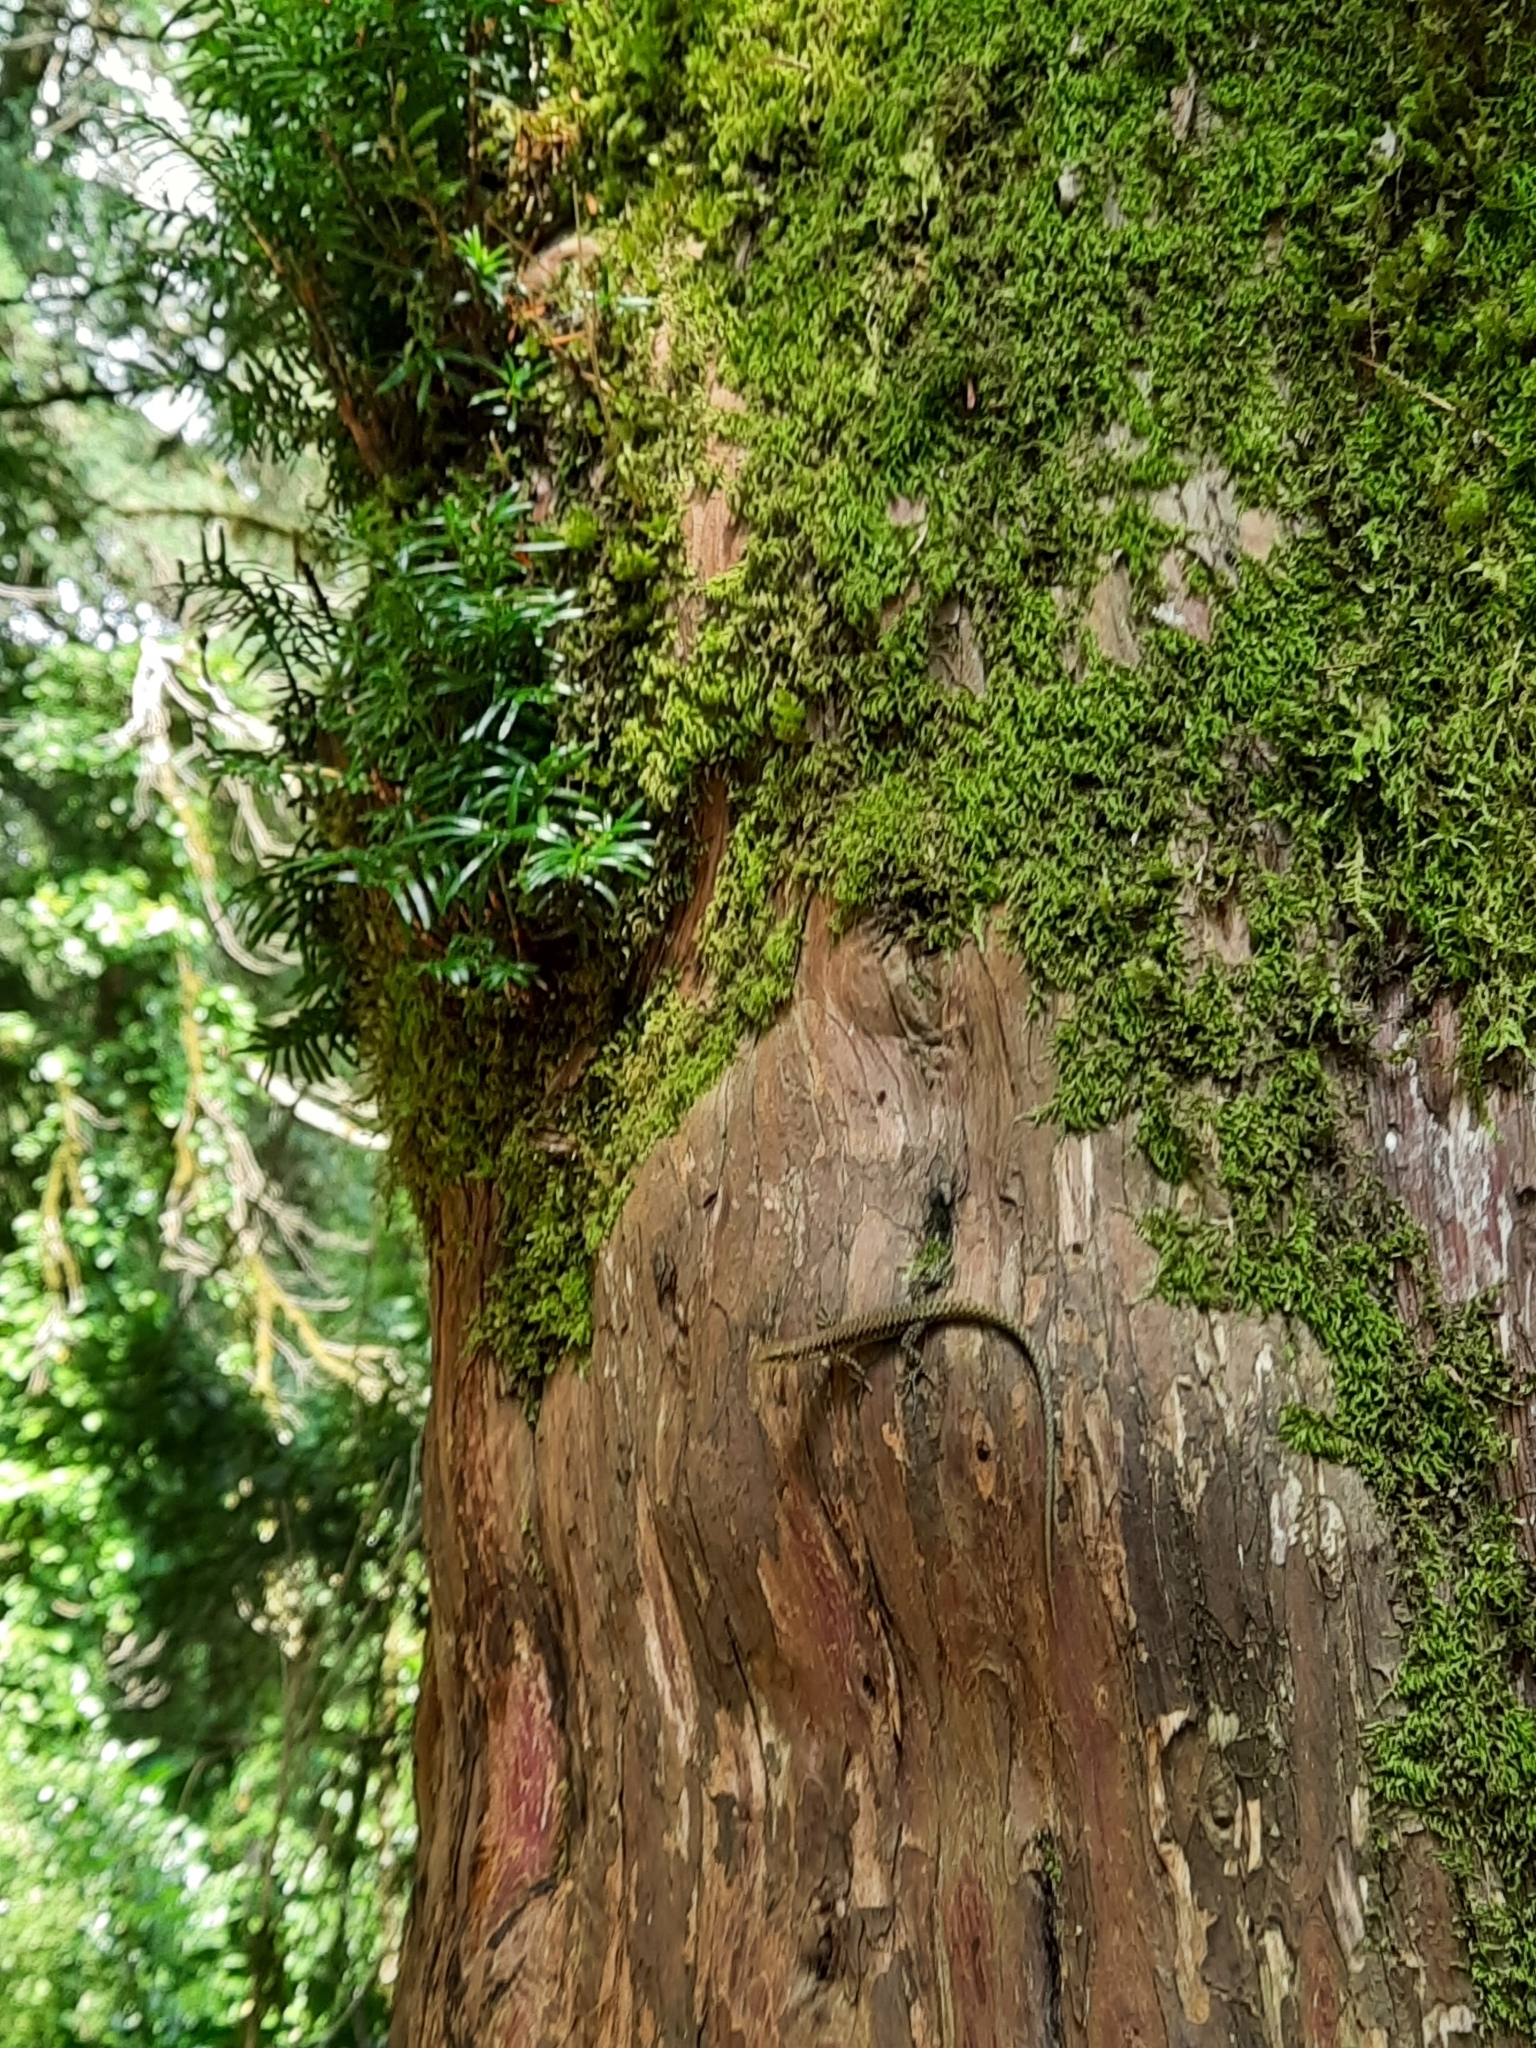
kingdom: Animalia
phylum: Chordata
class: Squamata
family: Lacertidae
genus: Darevskia
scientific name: Darevskia brauneri
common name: Brauner's rock lizard
